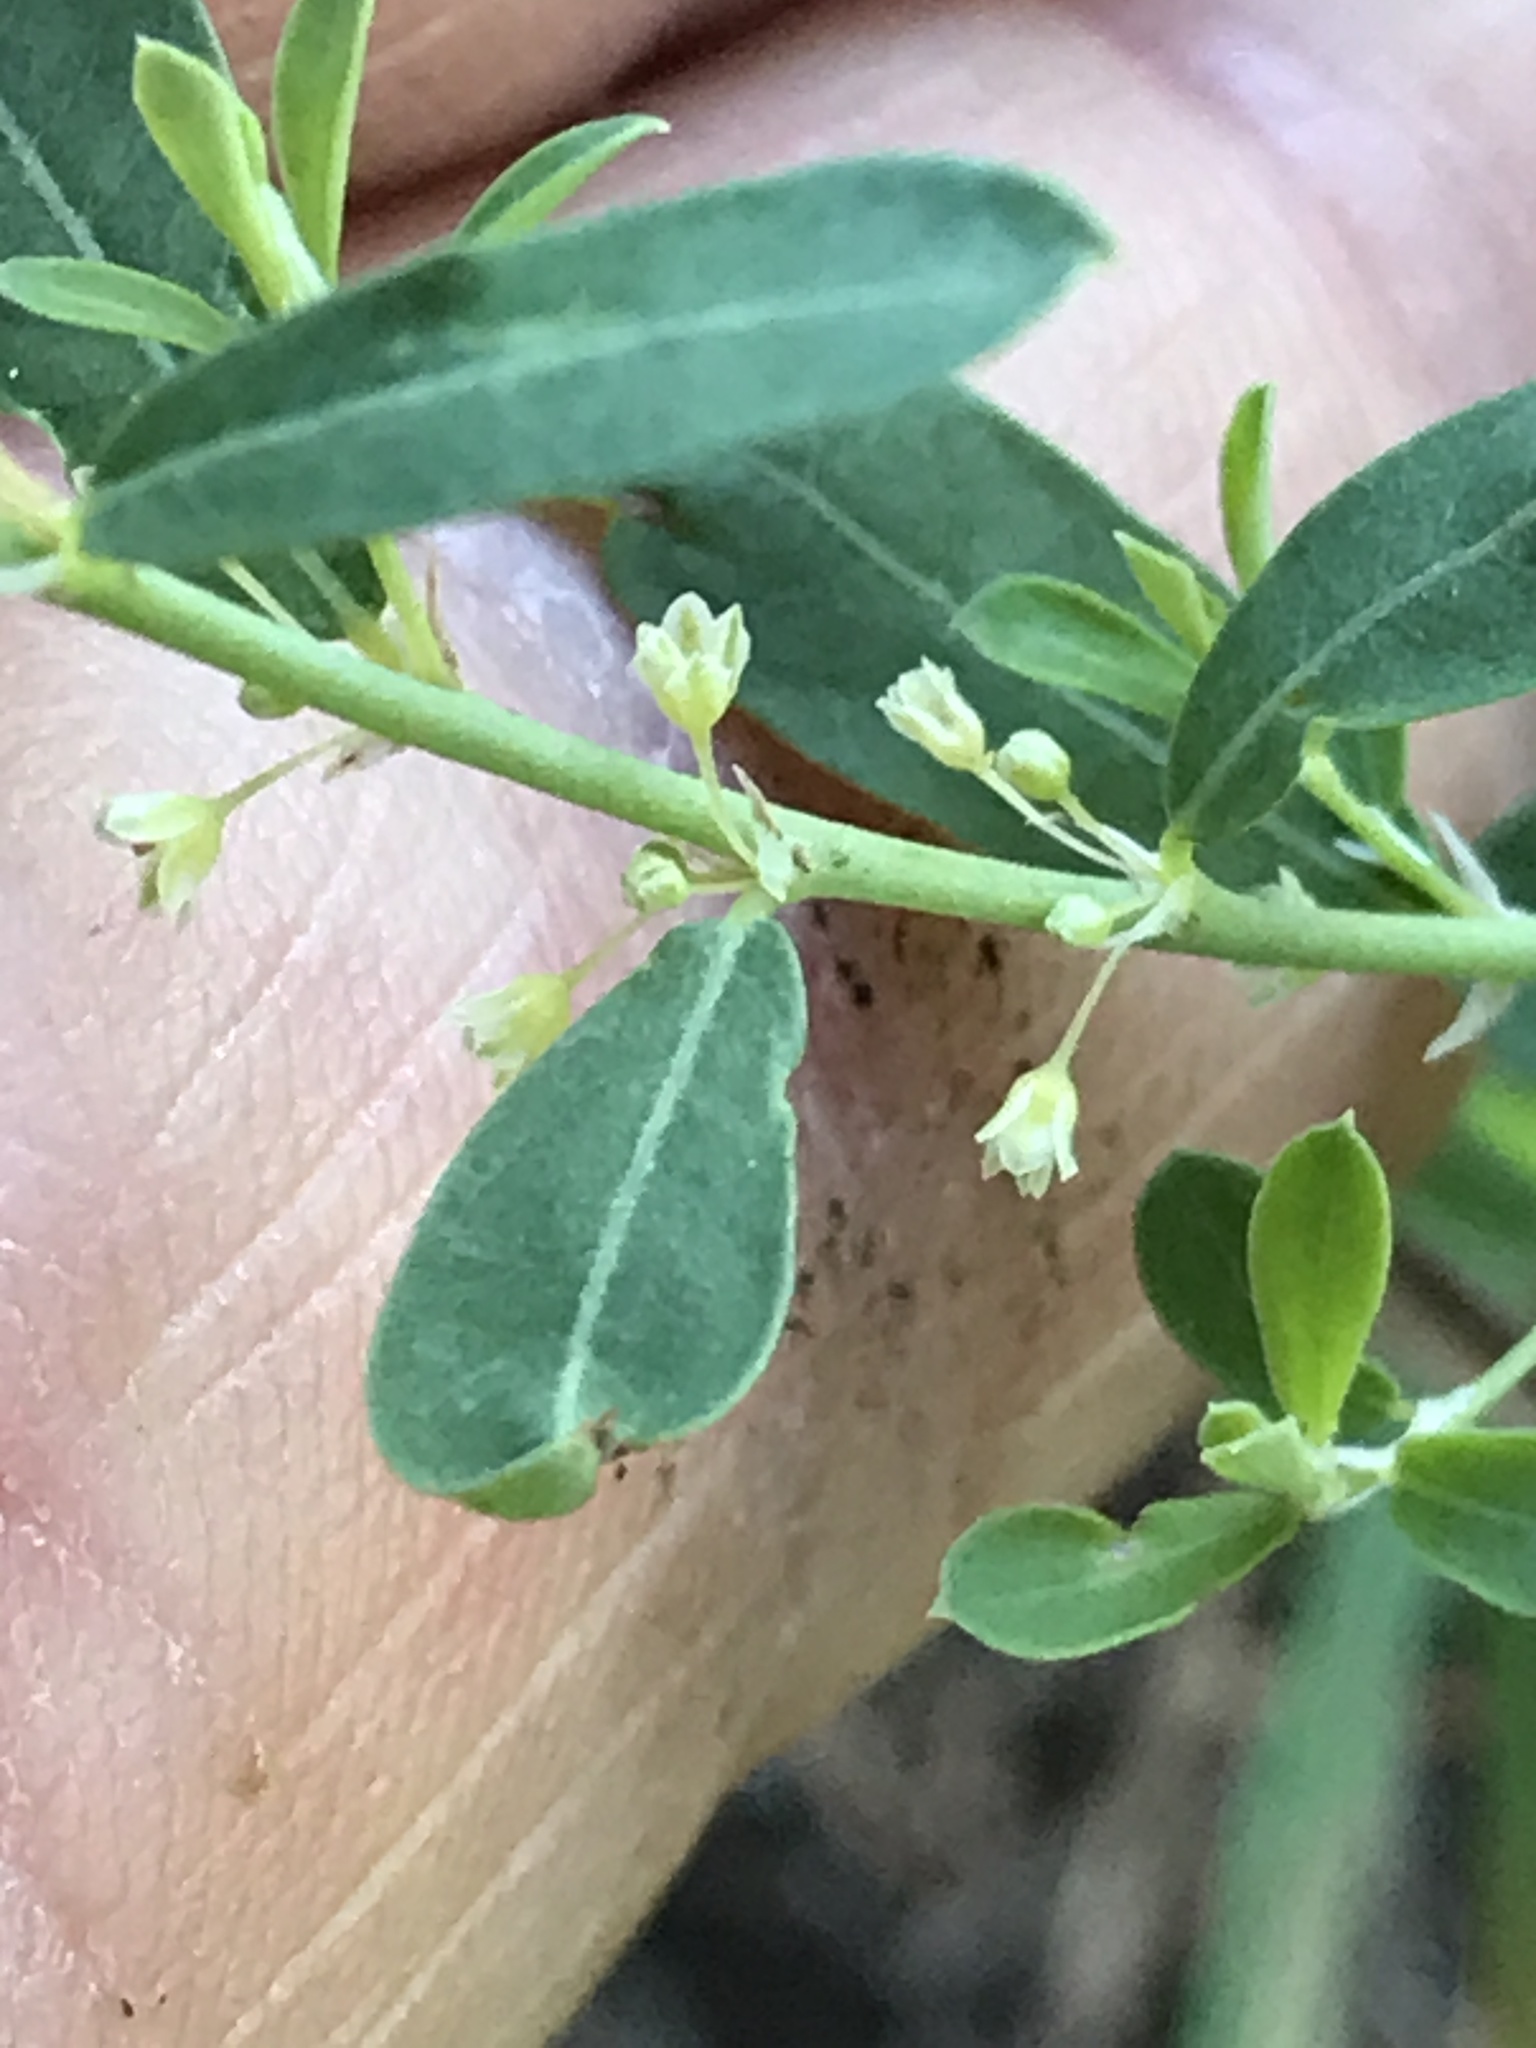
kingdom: Plantae
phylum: Tracheophyta
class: Magnoliopsida
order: Malpighiales
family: Phyllanthaceae
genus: Phyllanthus
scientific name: Phyllanthus polygonoides
